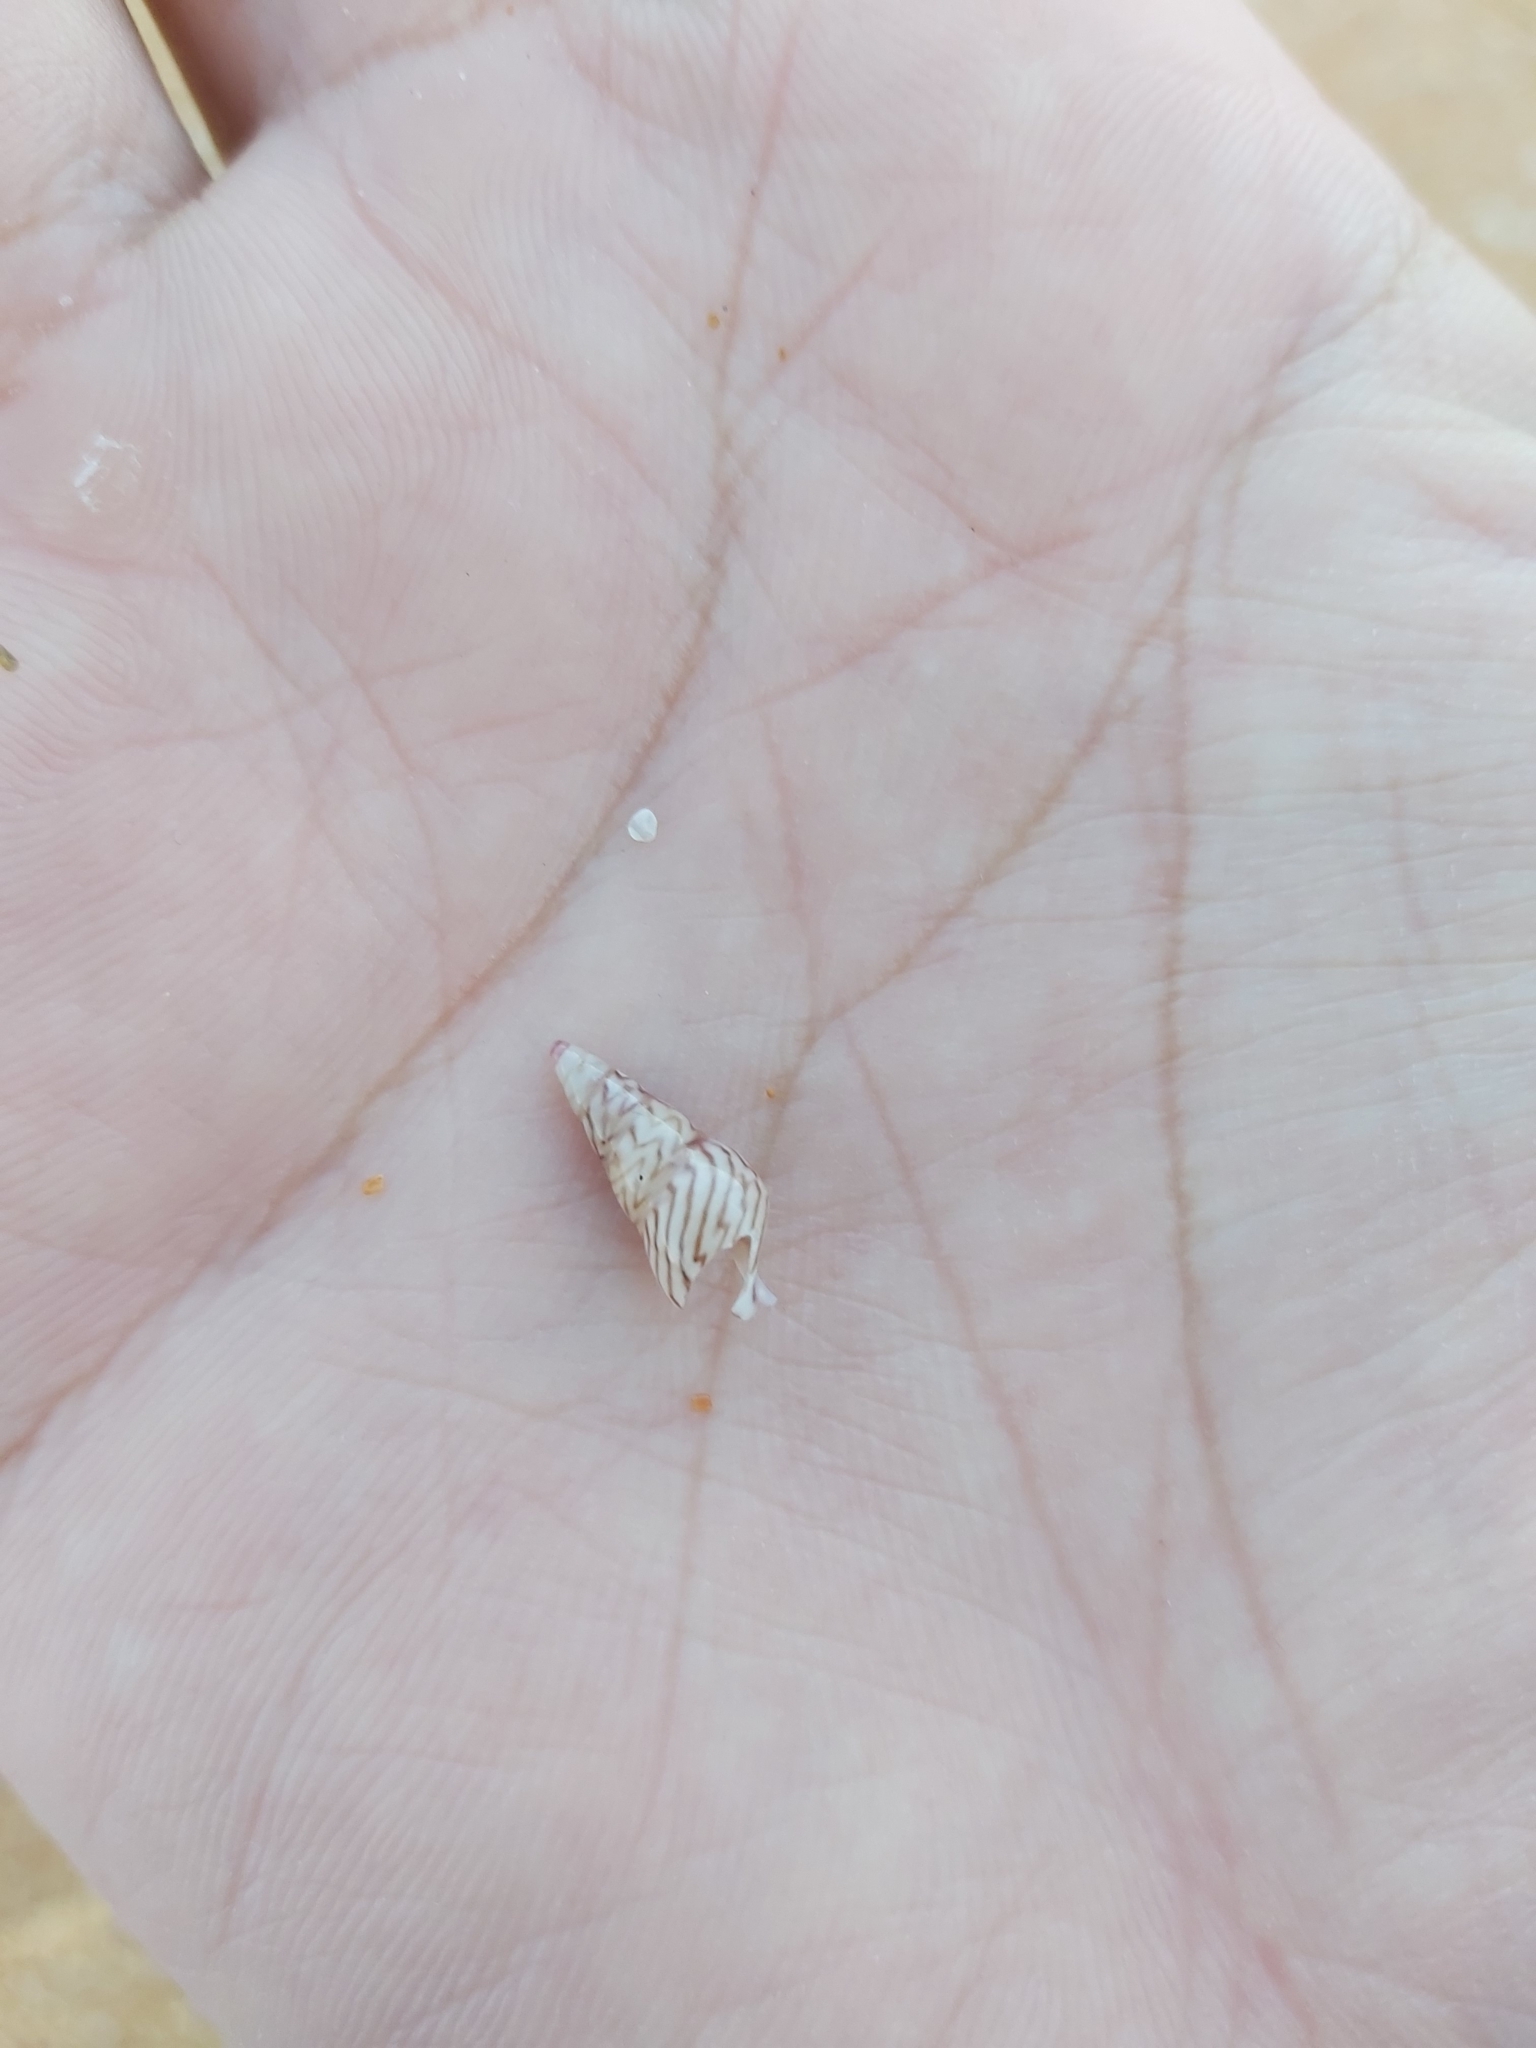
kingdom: Animalia
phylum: Mollusca
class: Gastropoda
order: Trochida
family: Trochidae
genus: Bankivia
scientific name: Bankivia fasciata
